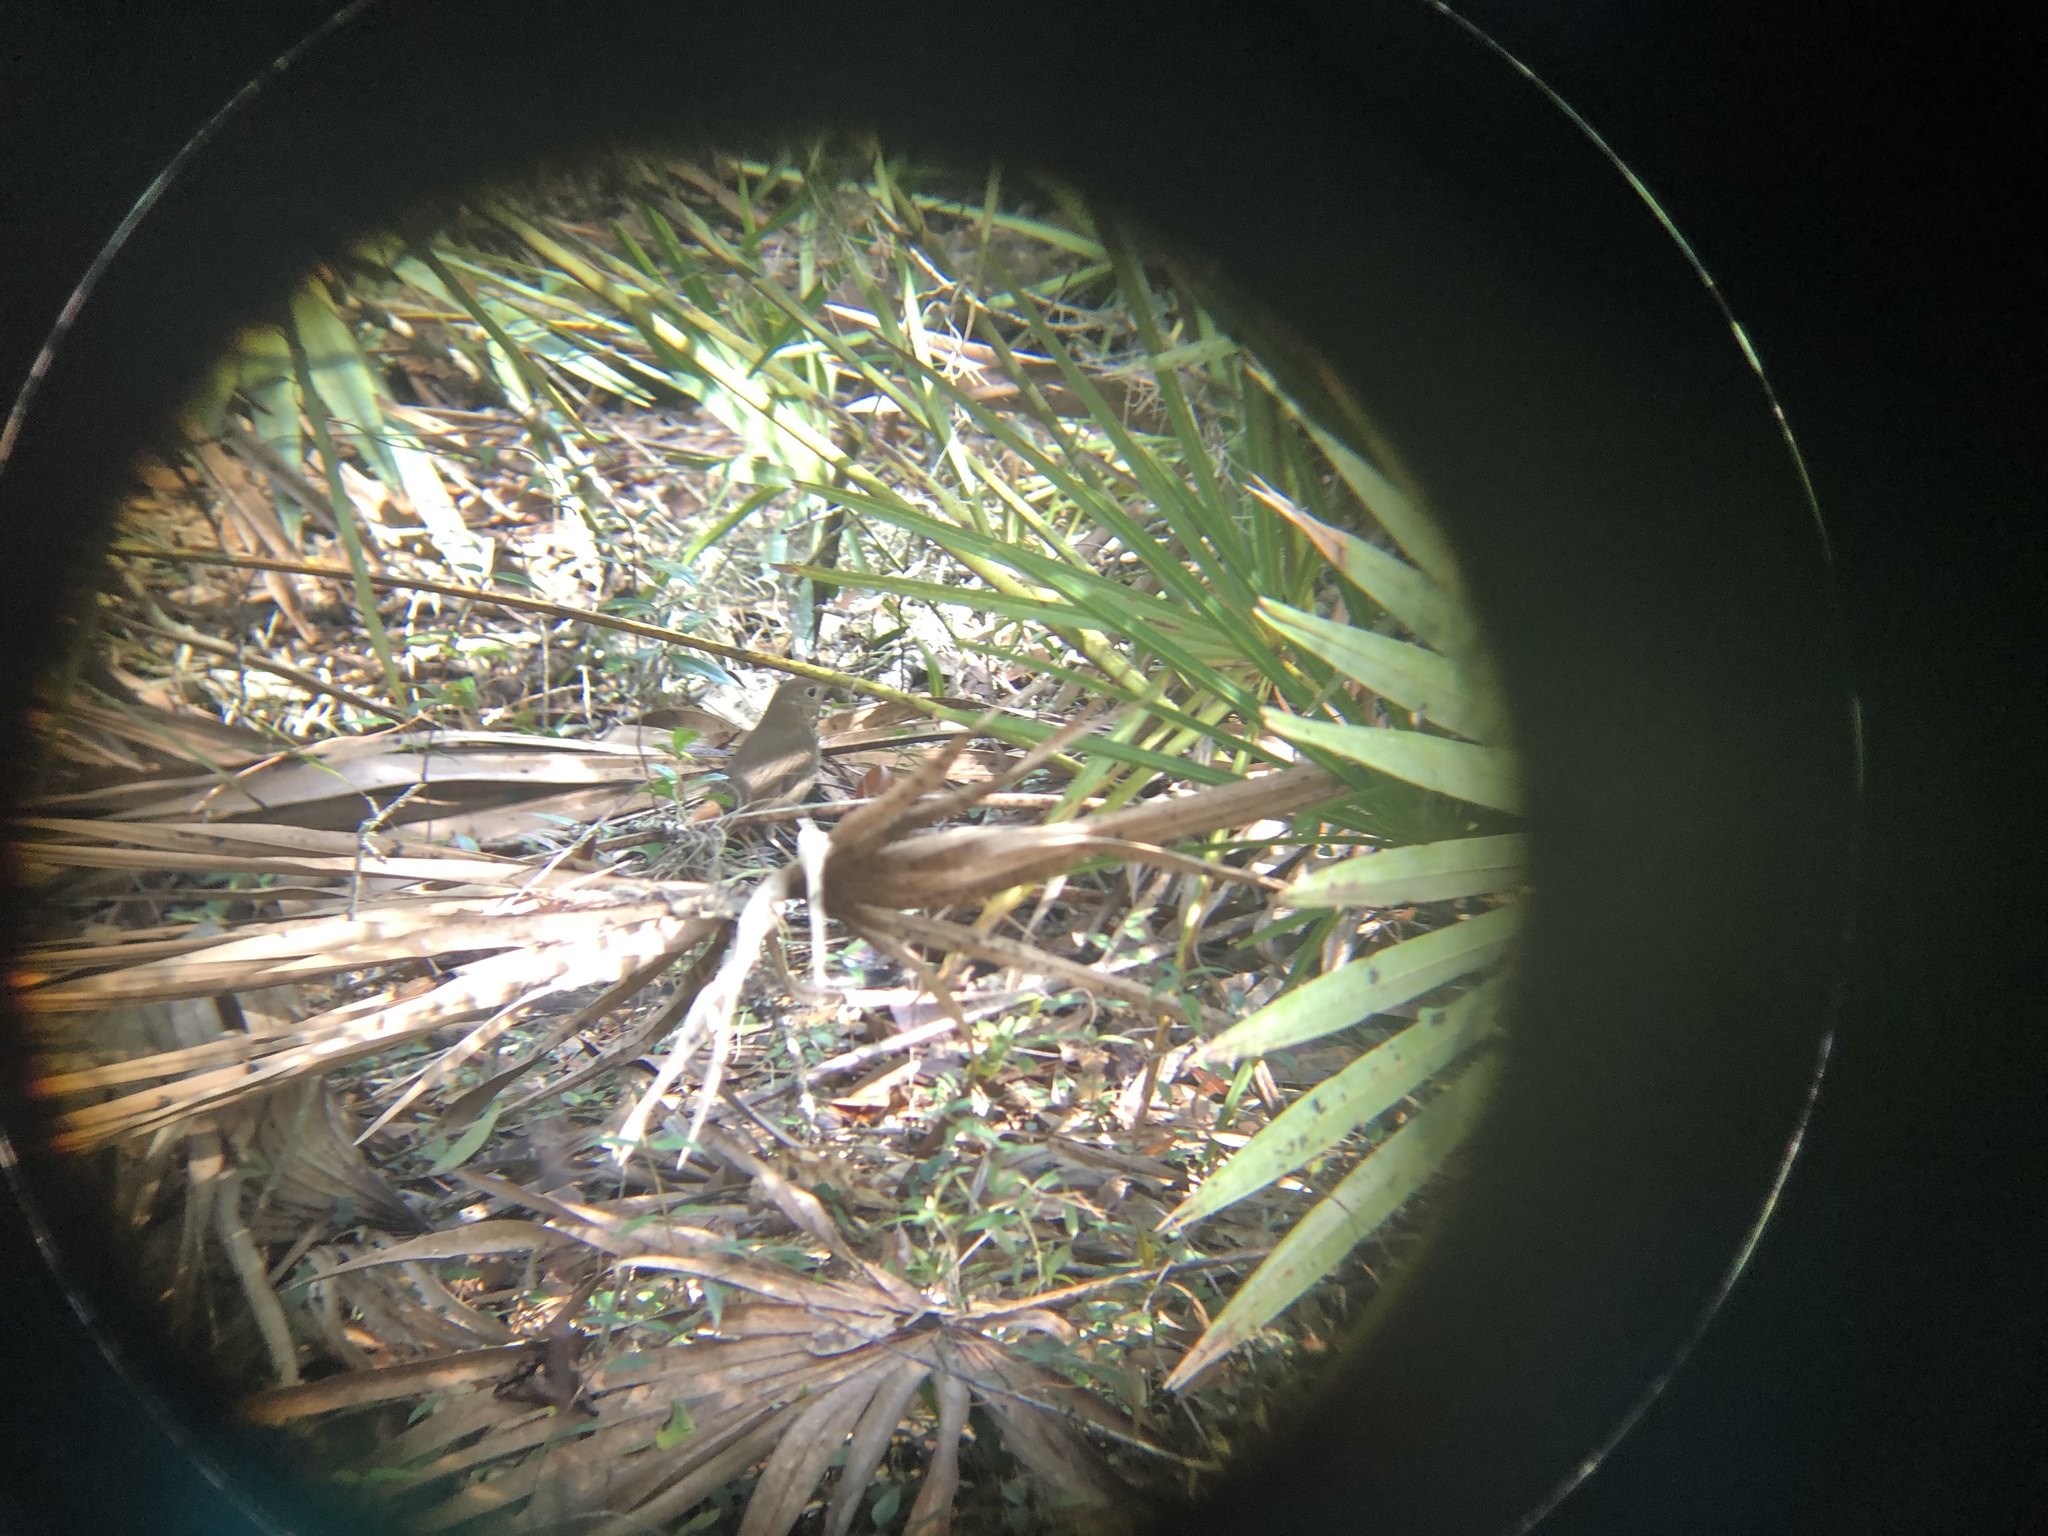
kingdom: Animalia
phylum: Chordata
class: Aves
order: Passeriformes
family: Turdidae
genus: Catharus
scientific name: Catharus guttatus
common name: Hermit thrush
